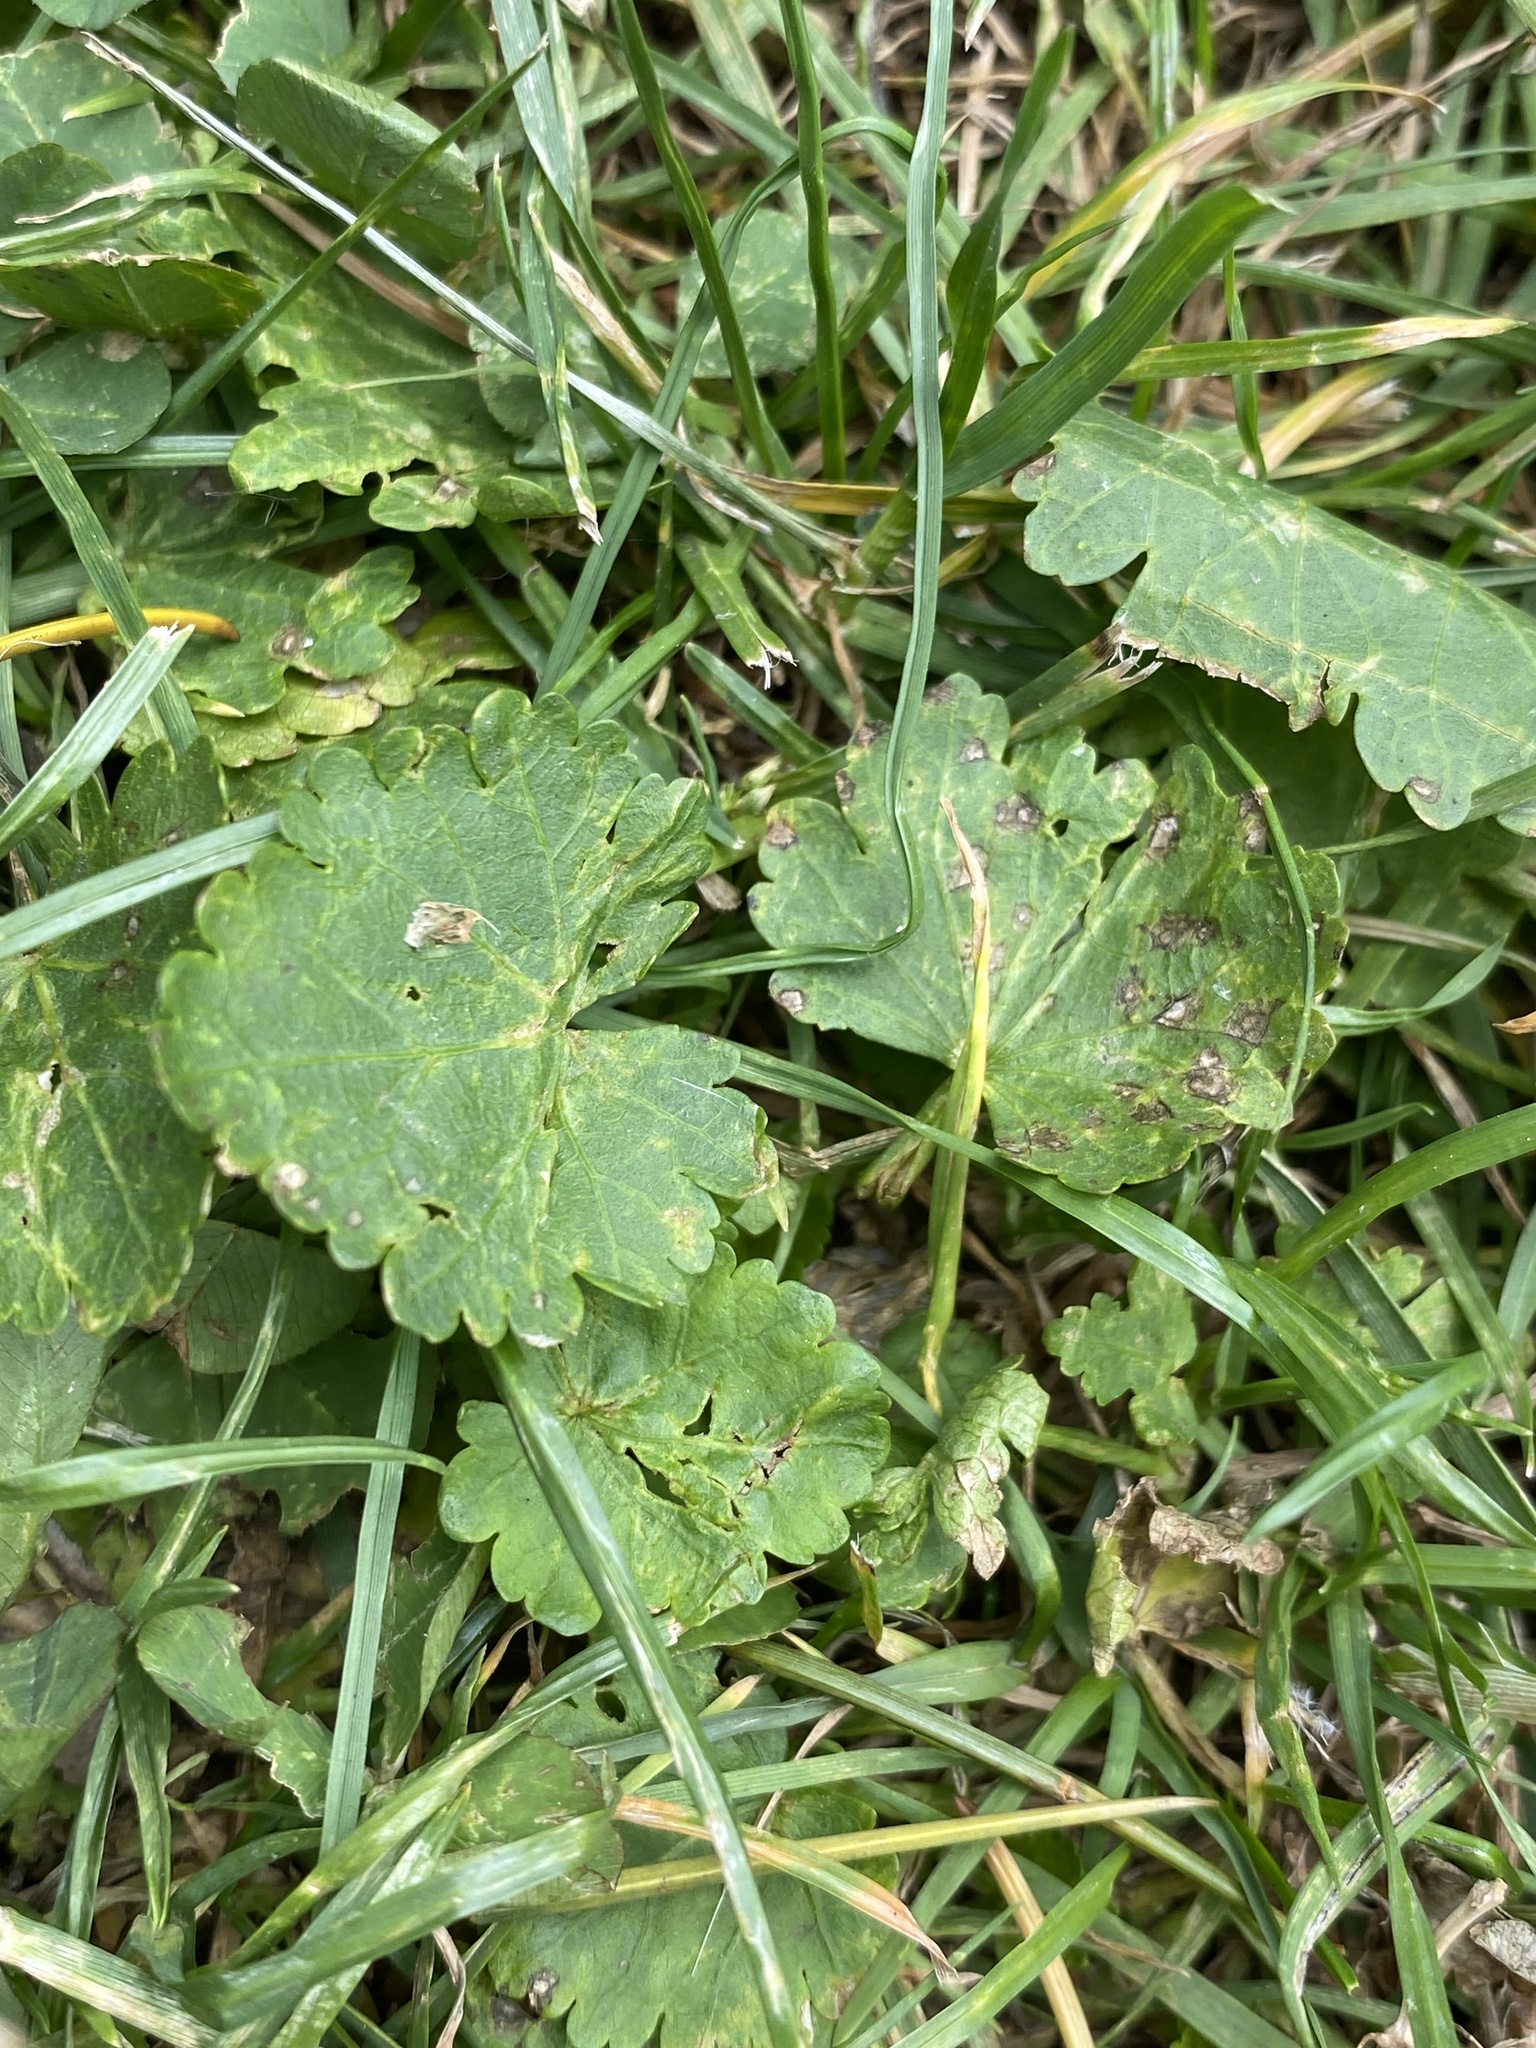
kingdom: Plantae
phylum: Tracheophyta
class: Magnoliopsida
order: Malvales
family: Malvaceae
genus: Modiola
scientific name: Modiola caroliniana
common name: Carolina bristlemallow
